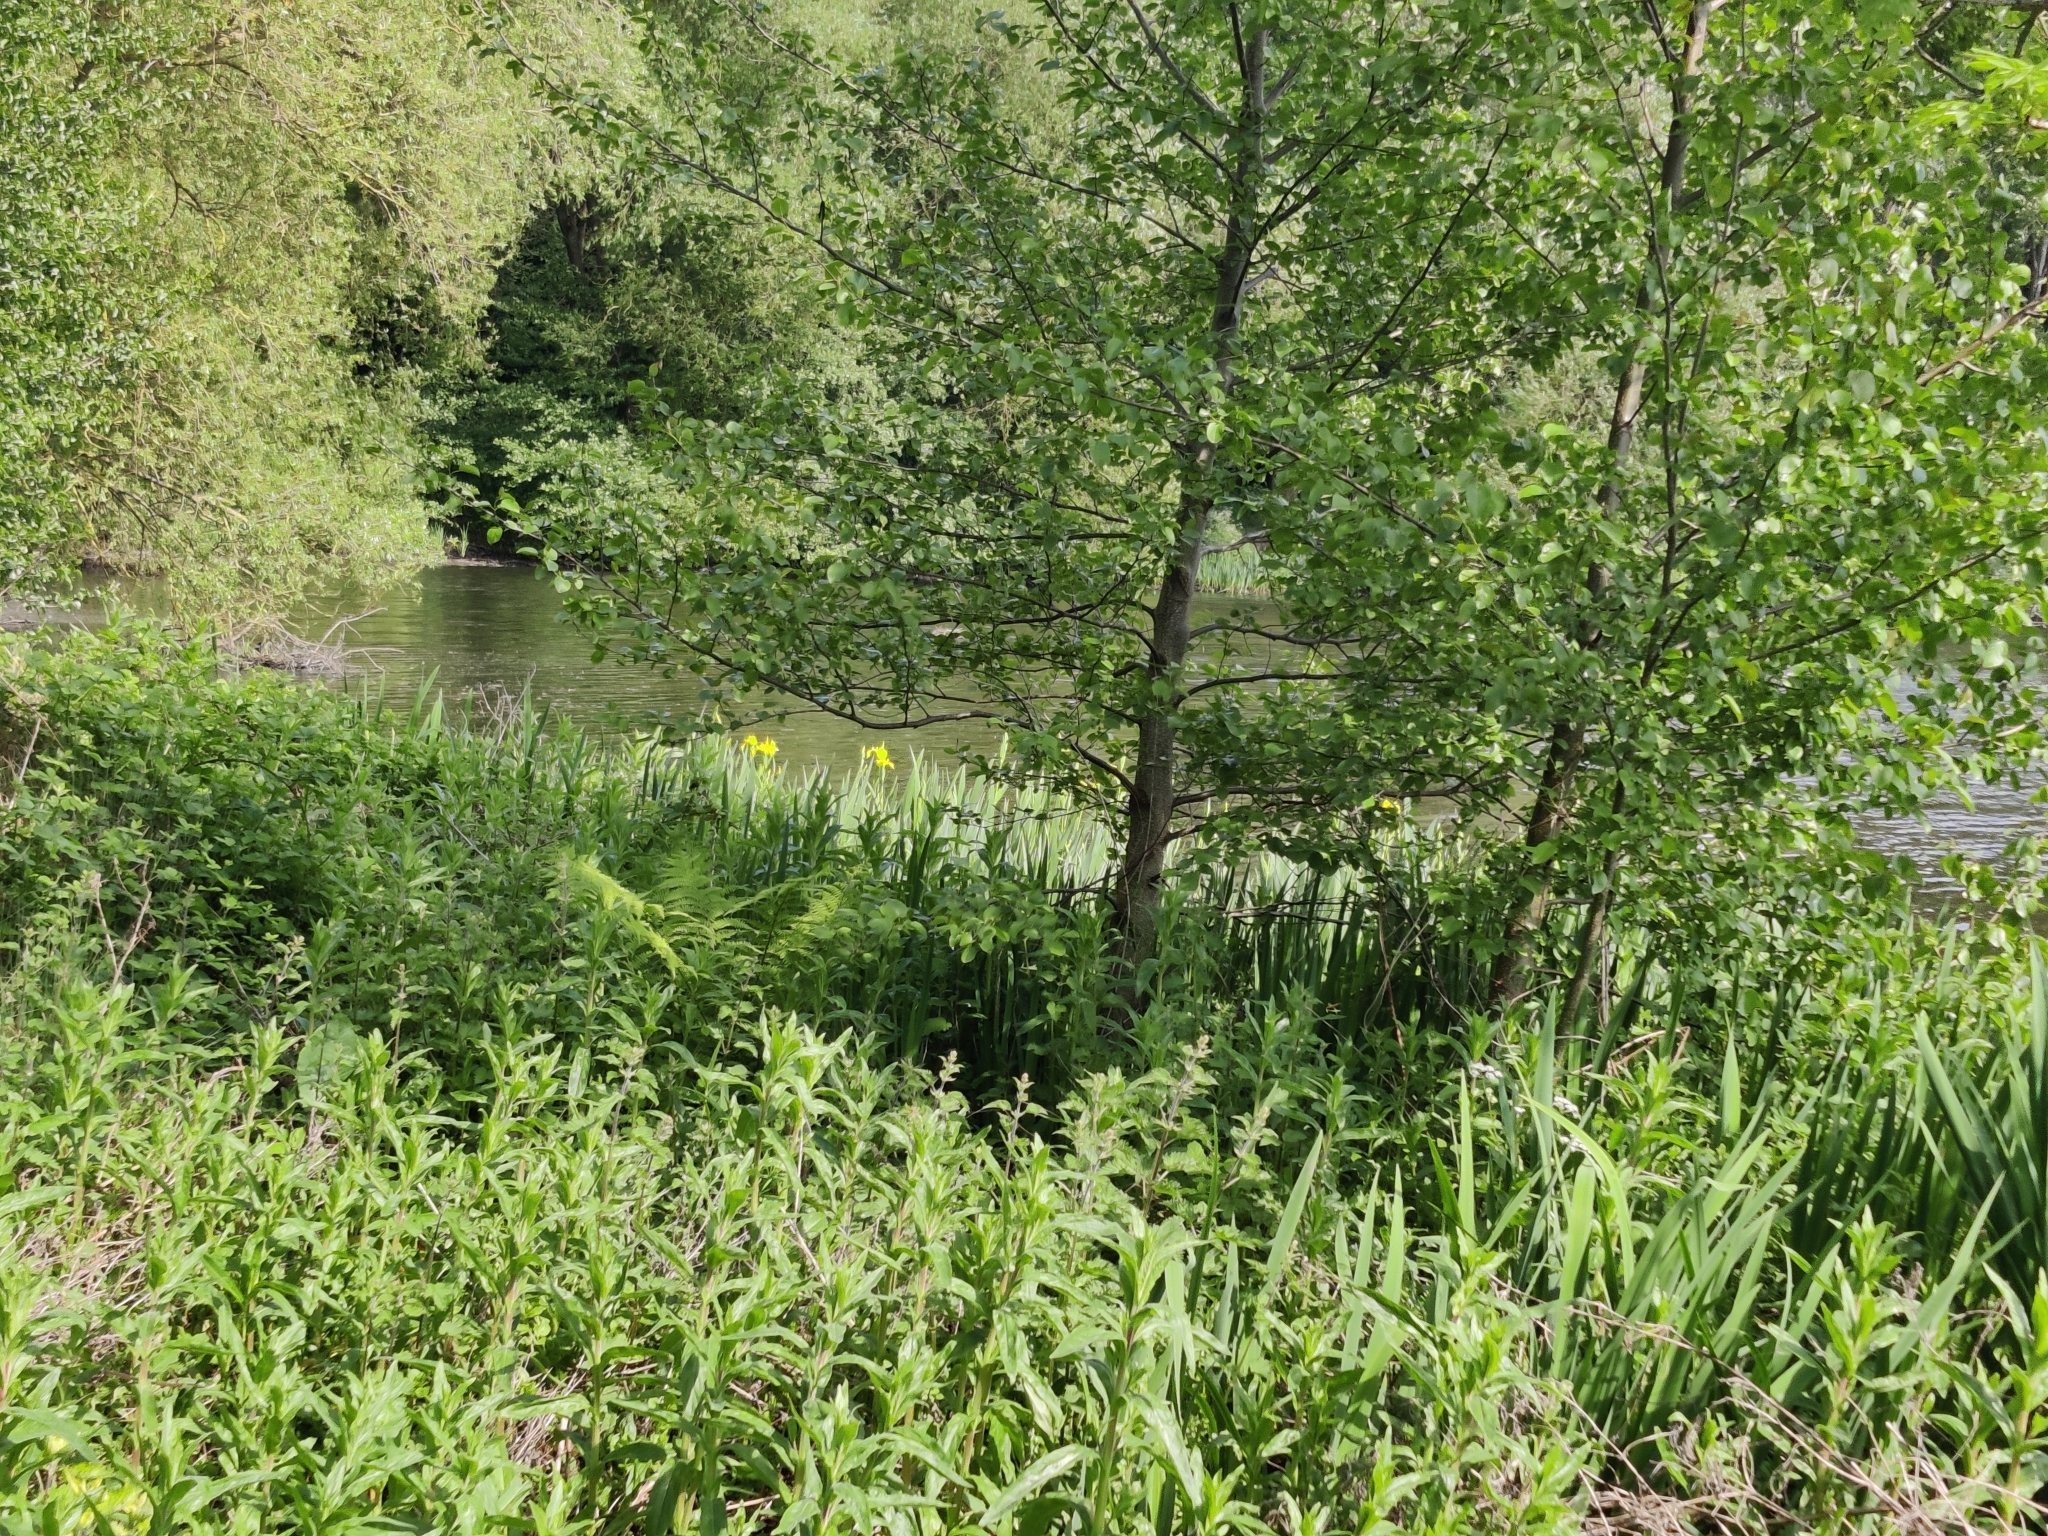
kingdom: Plantae
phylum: Tracheophyta
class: Liliopsida
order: Asparagales
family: Iridaceae
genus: Iris
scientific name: Iris pseudacorus
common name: Yellow flag
